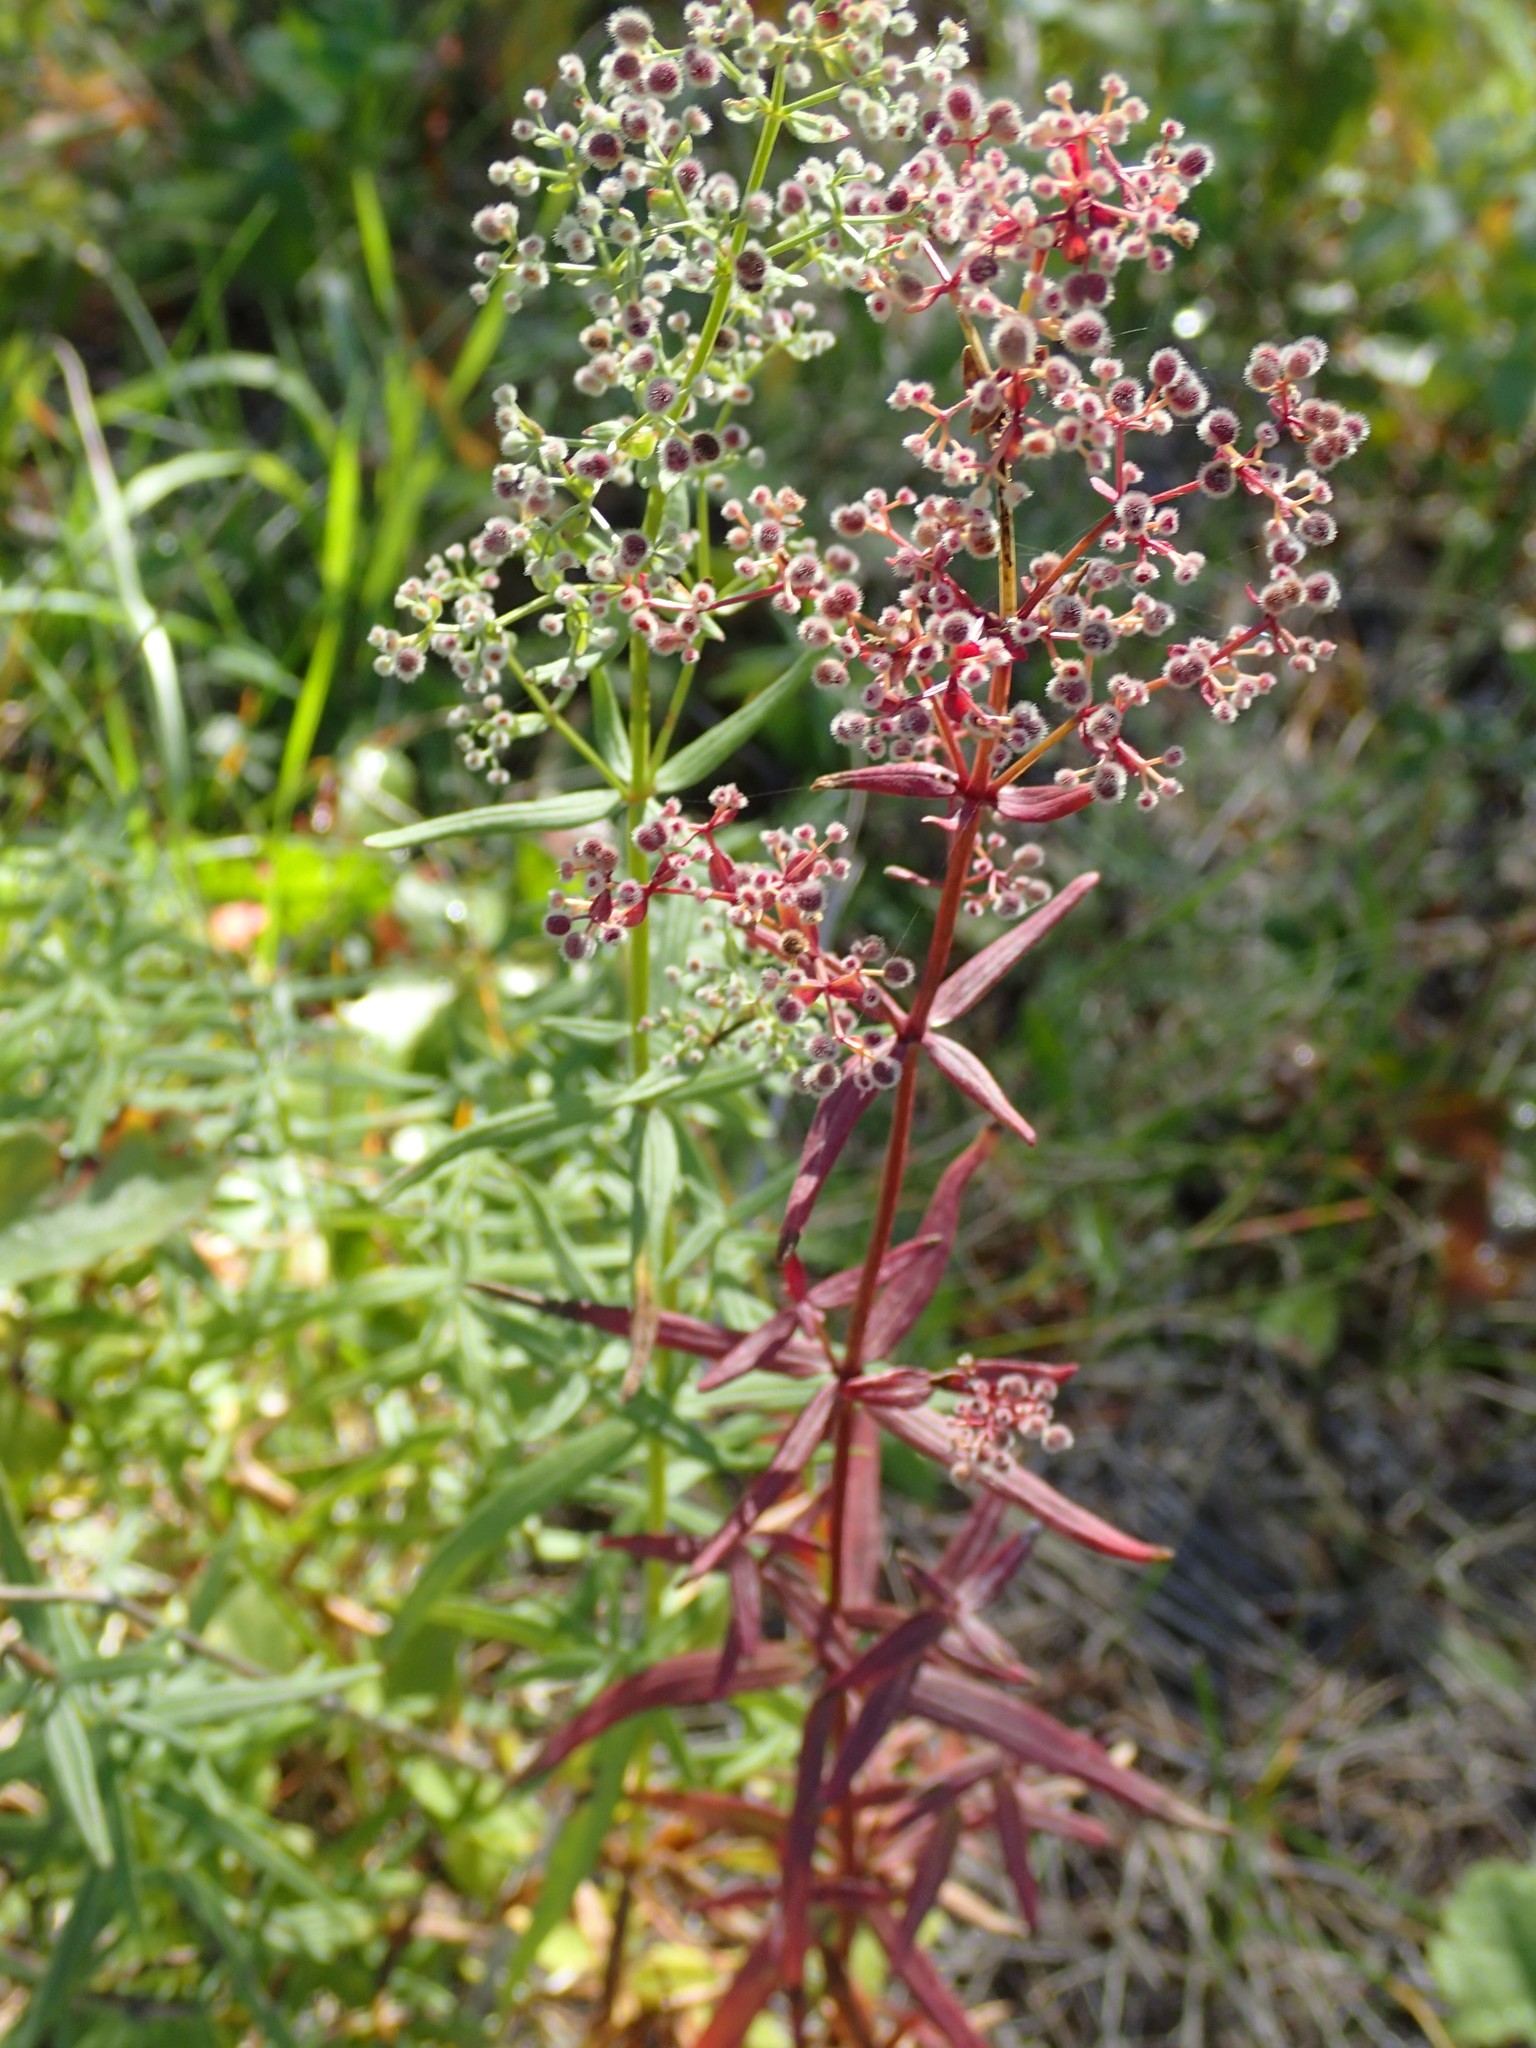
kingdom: Plantae
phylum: Tracheophyta
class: Magnoliopsida
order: Gentianales
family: Rubiaceae
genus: Galium
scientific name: Galium boreale
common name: Northern bedstraw
